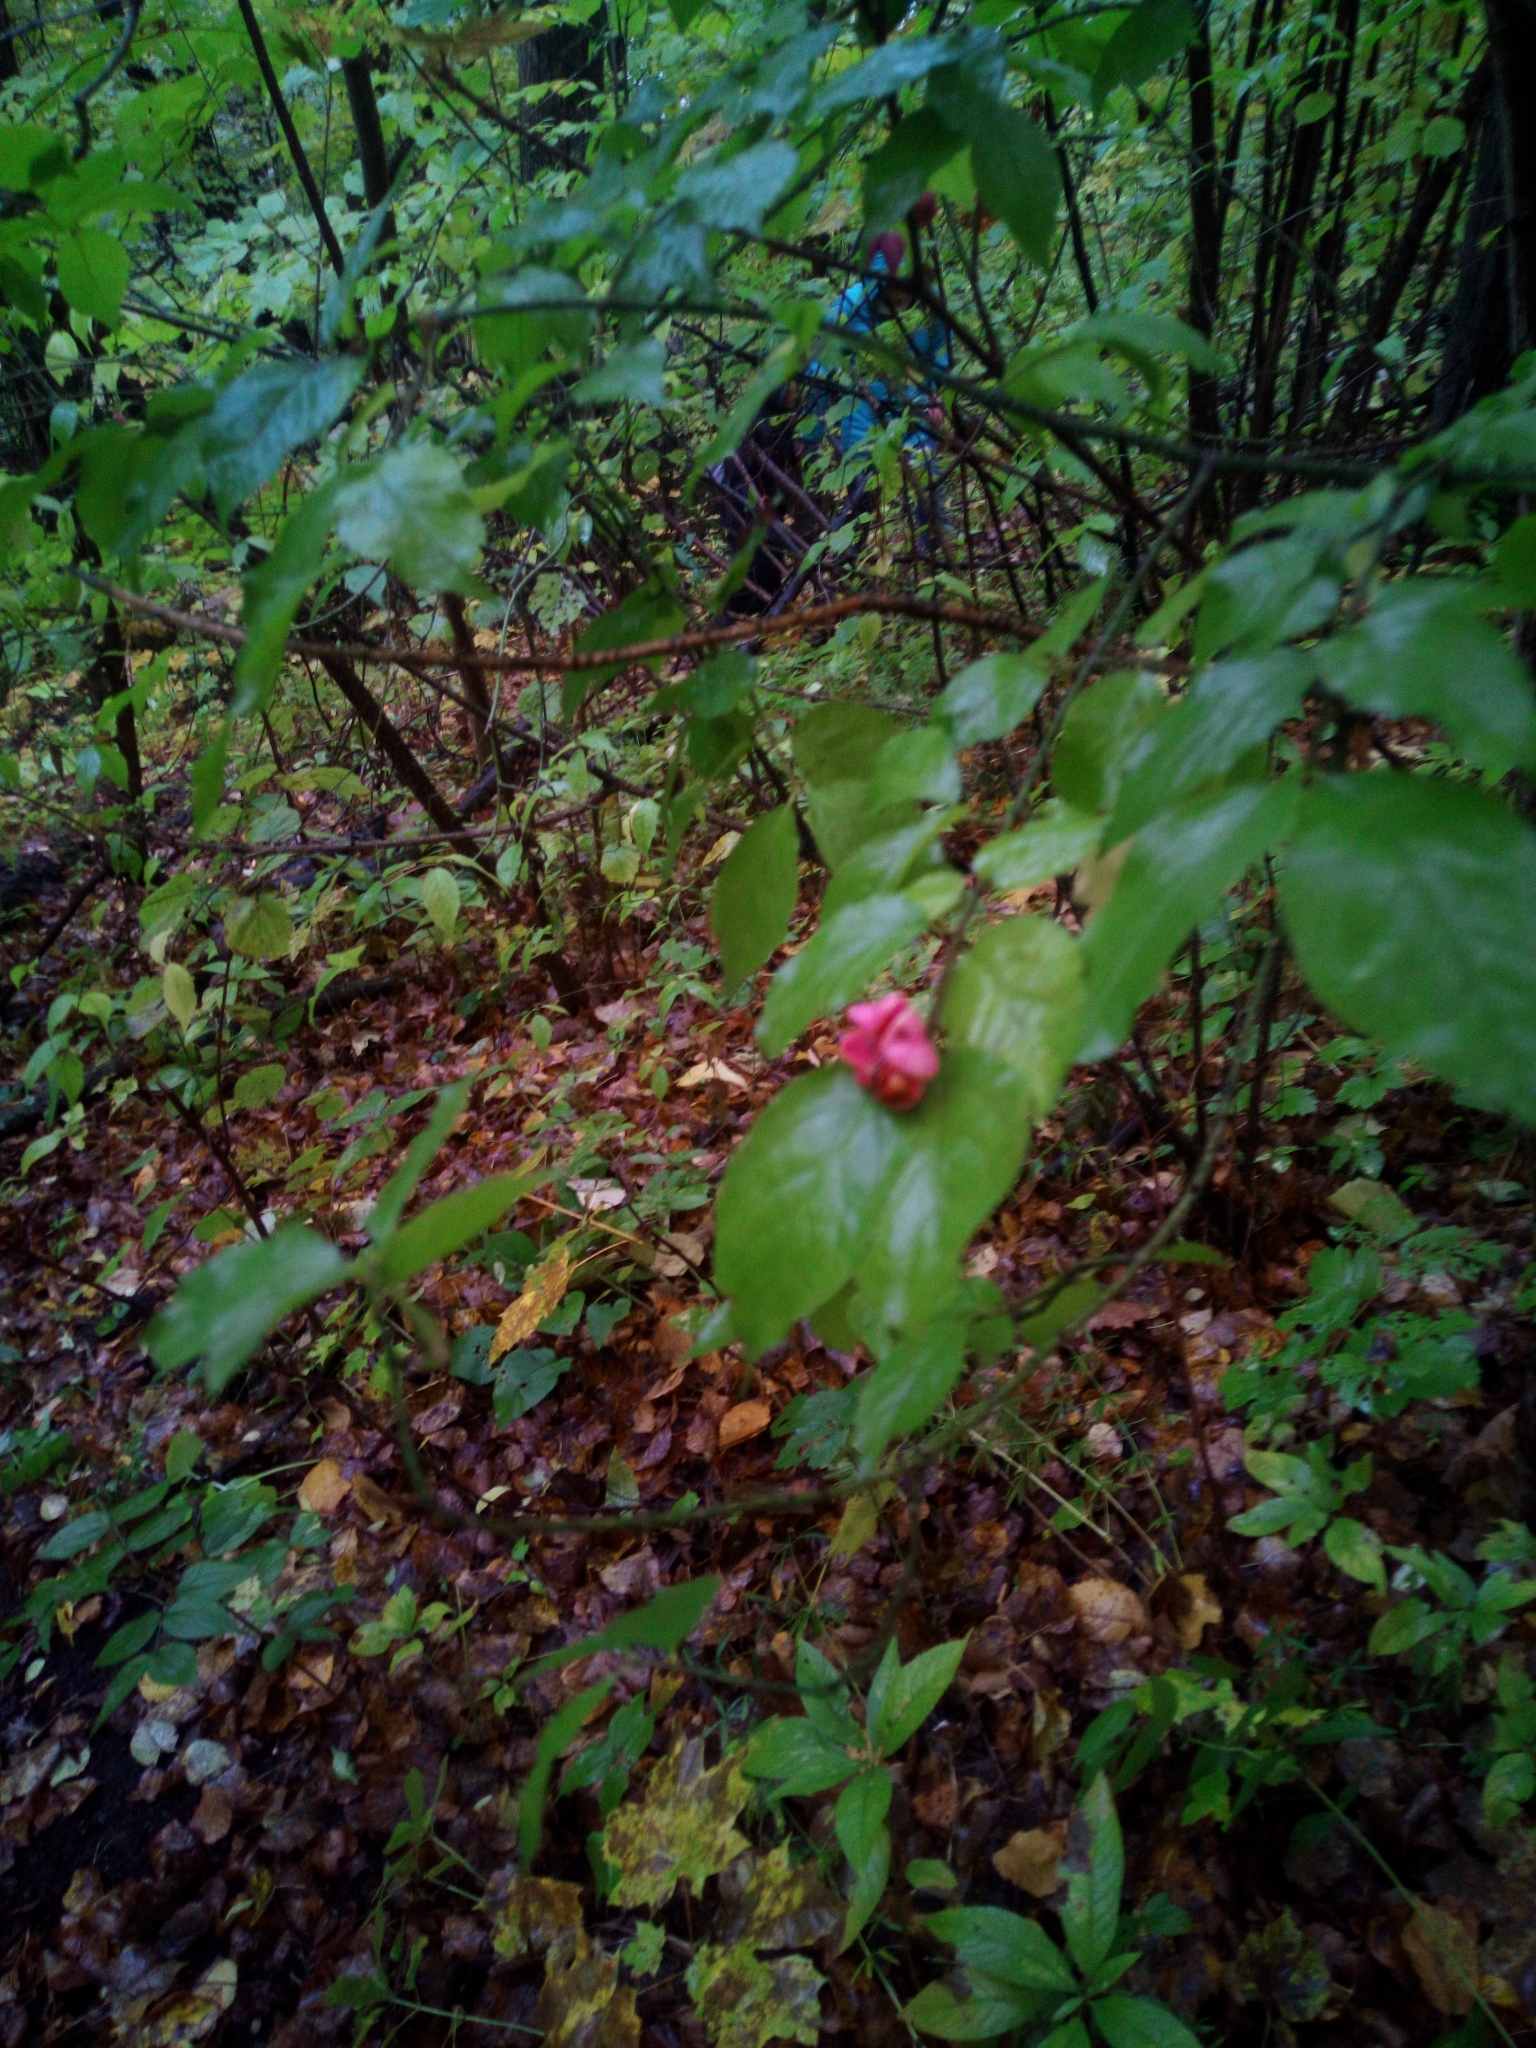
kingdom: Plantae
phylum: Tracheophyta
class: Magnoliopsida
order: Celastrales
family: Celastraceae
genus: Euonymus
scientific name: Euonymus verrucosus
